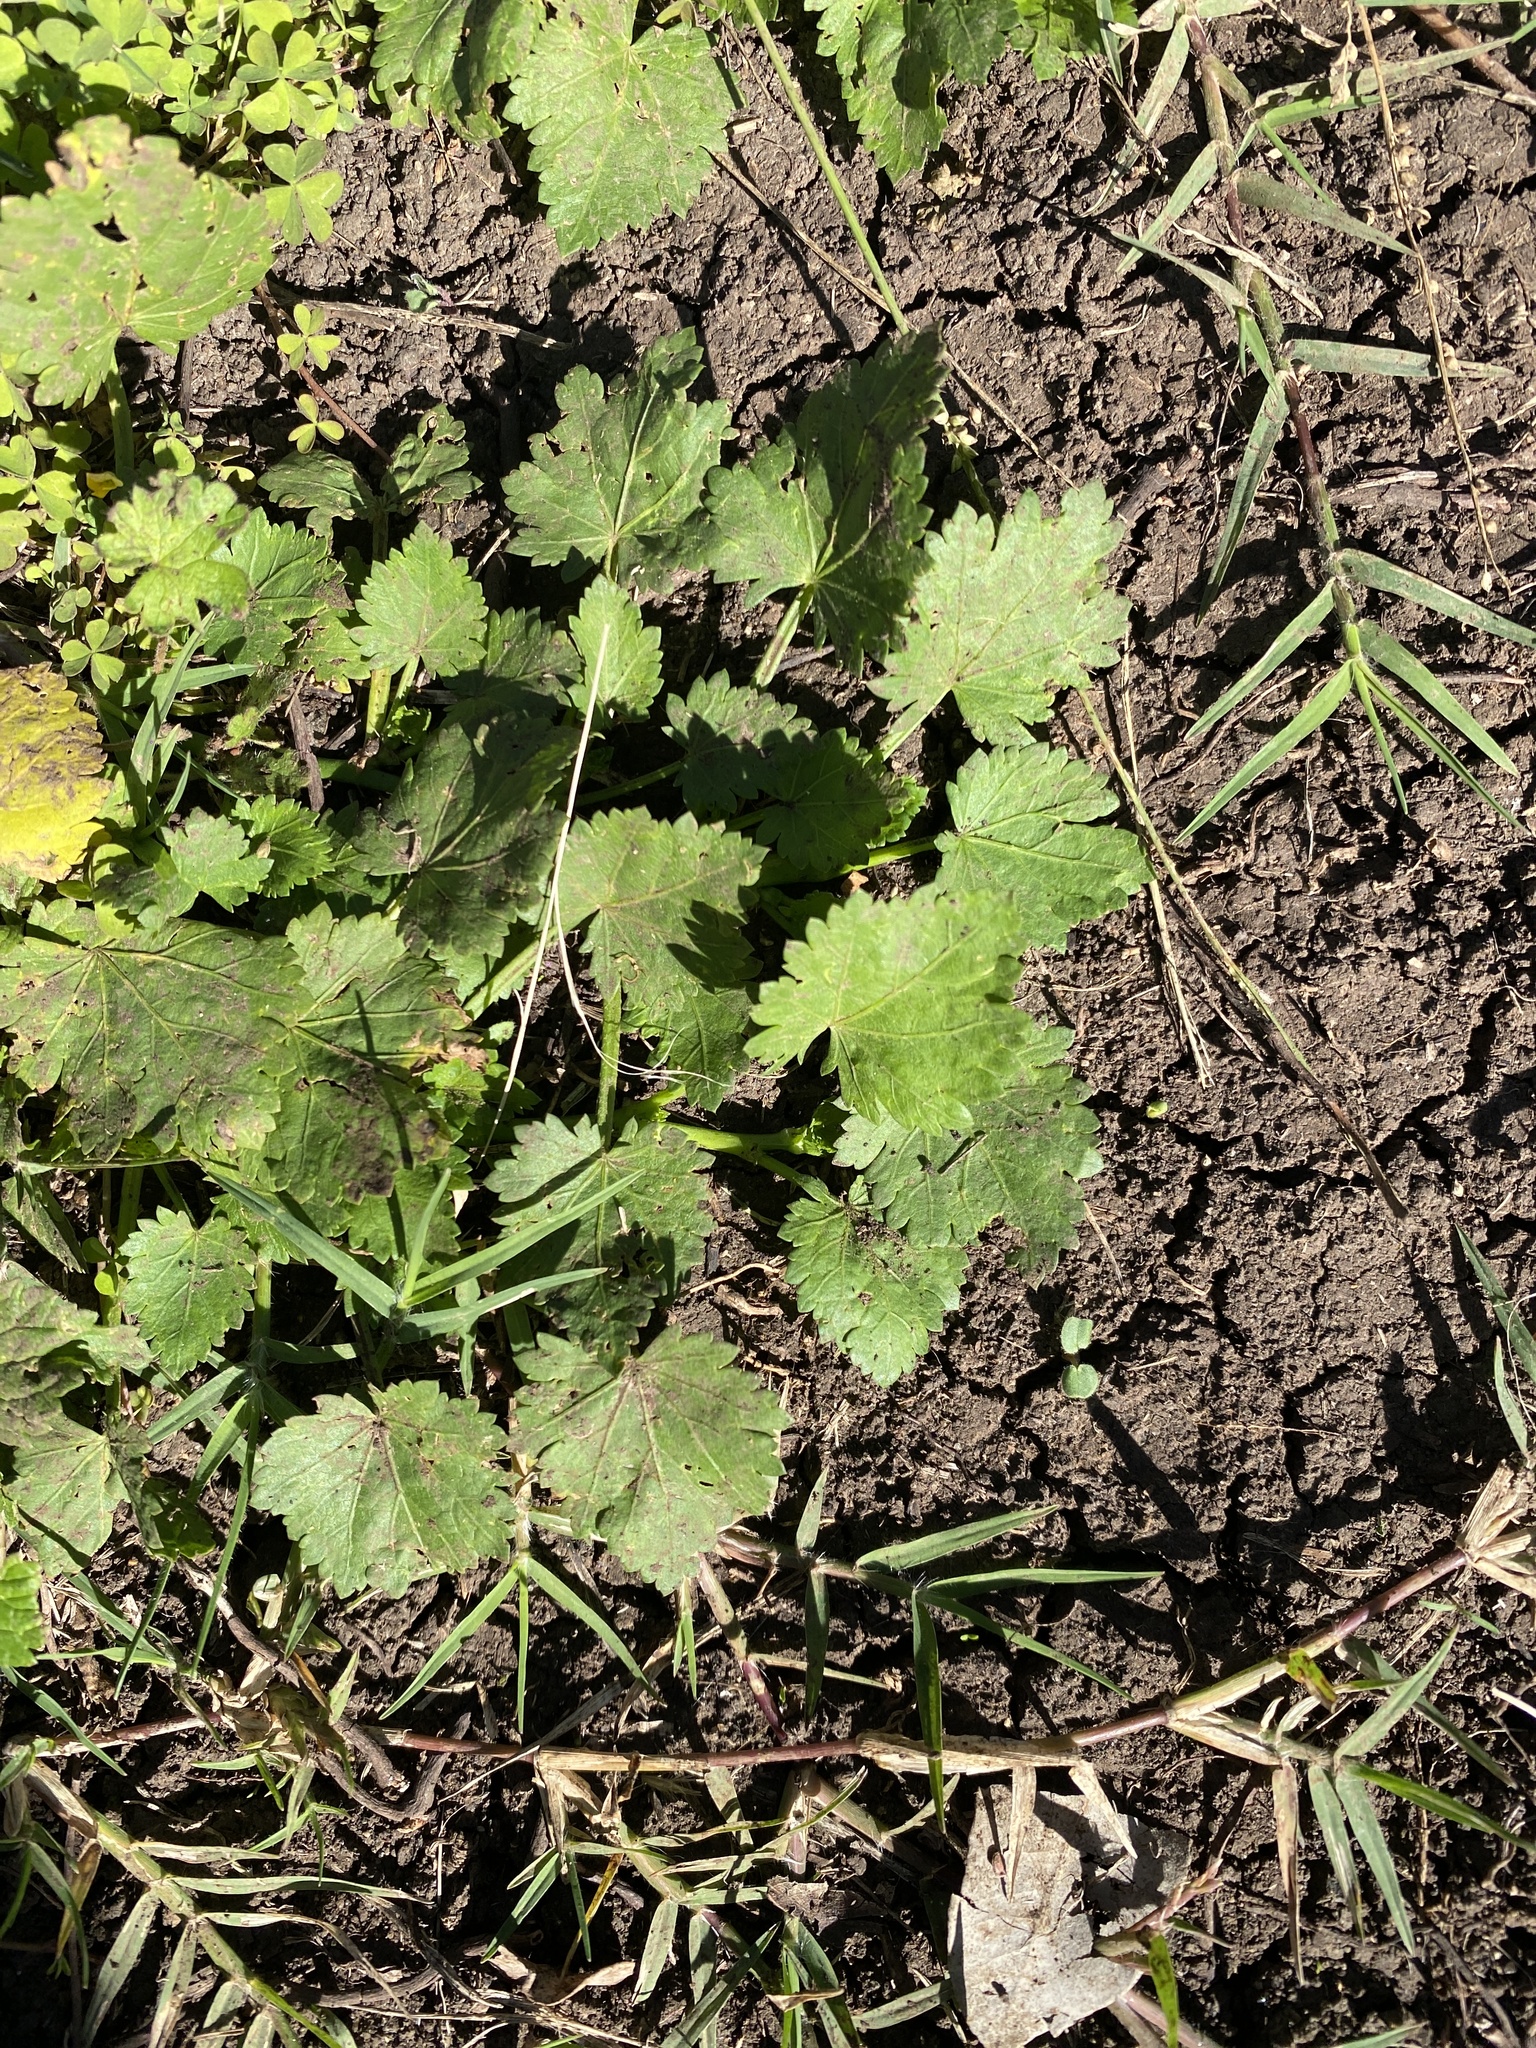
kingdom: Plantae
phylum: Tracheophyta
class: Magnoliopsida
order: Malvales
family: Malvaceae
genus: Modiola
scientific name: Modiola caroliniana
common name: Carolina bristlemallow
